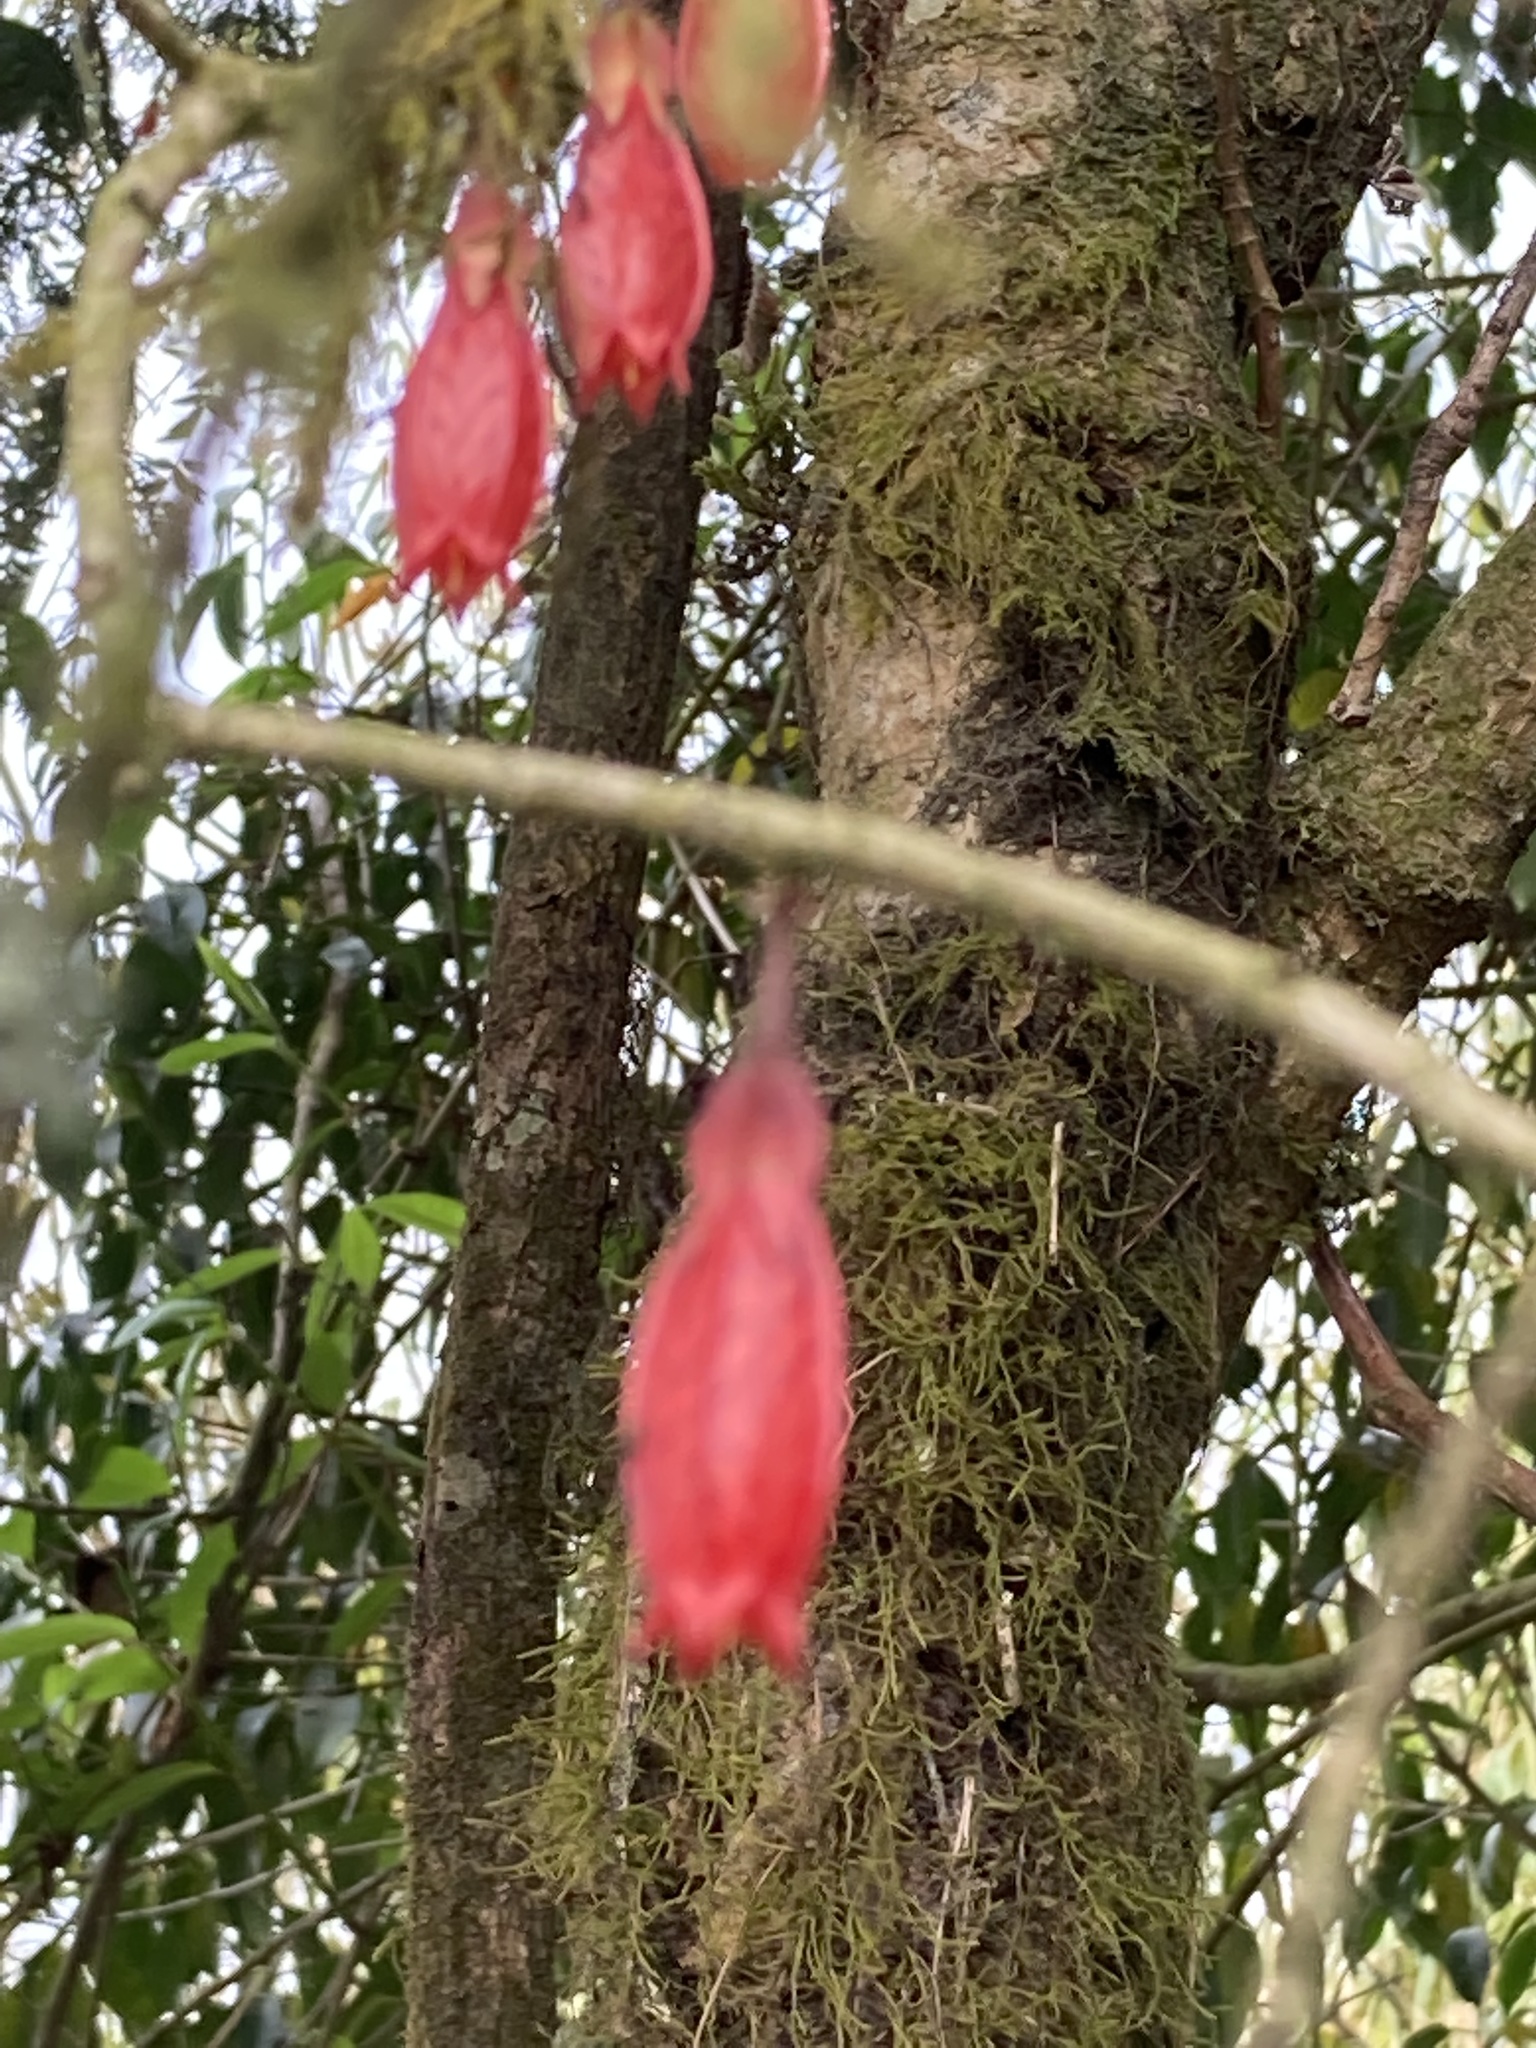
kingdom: Plantae
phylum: Tracheophyta
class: Magnoliopsida
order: Ericales
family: Ericaceae
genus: Agapetes
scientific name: Agapetes serpens
